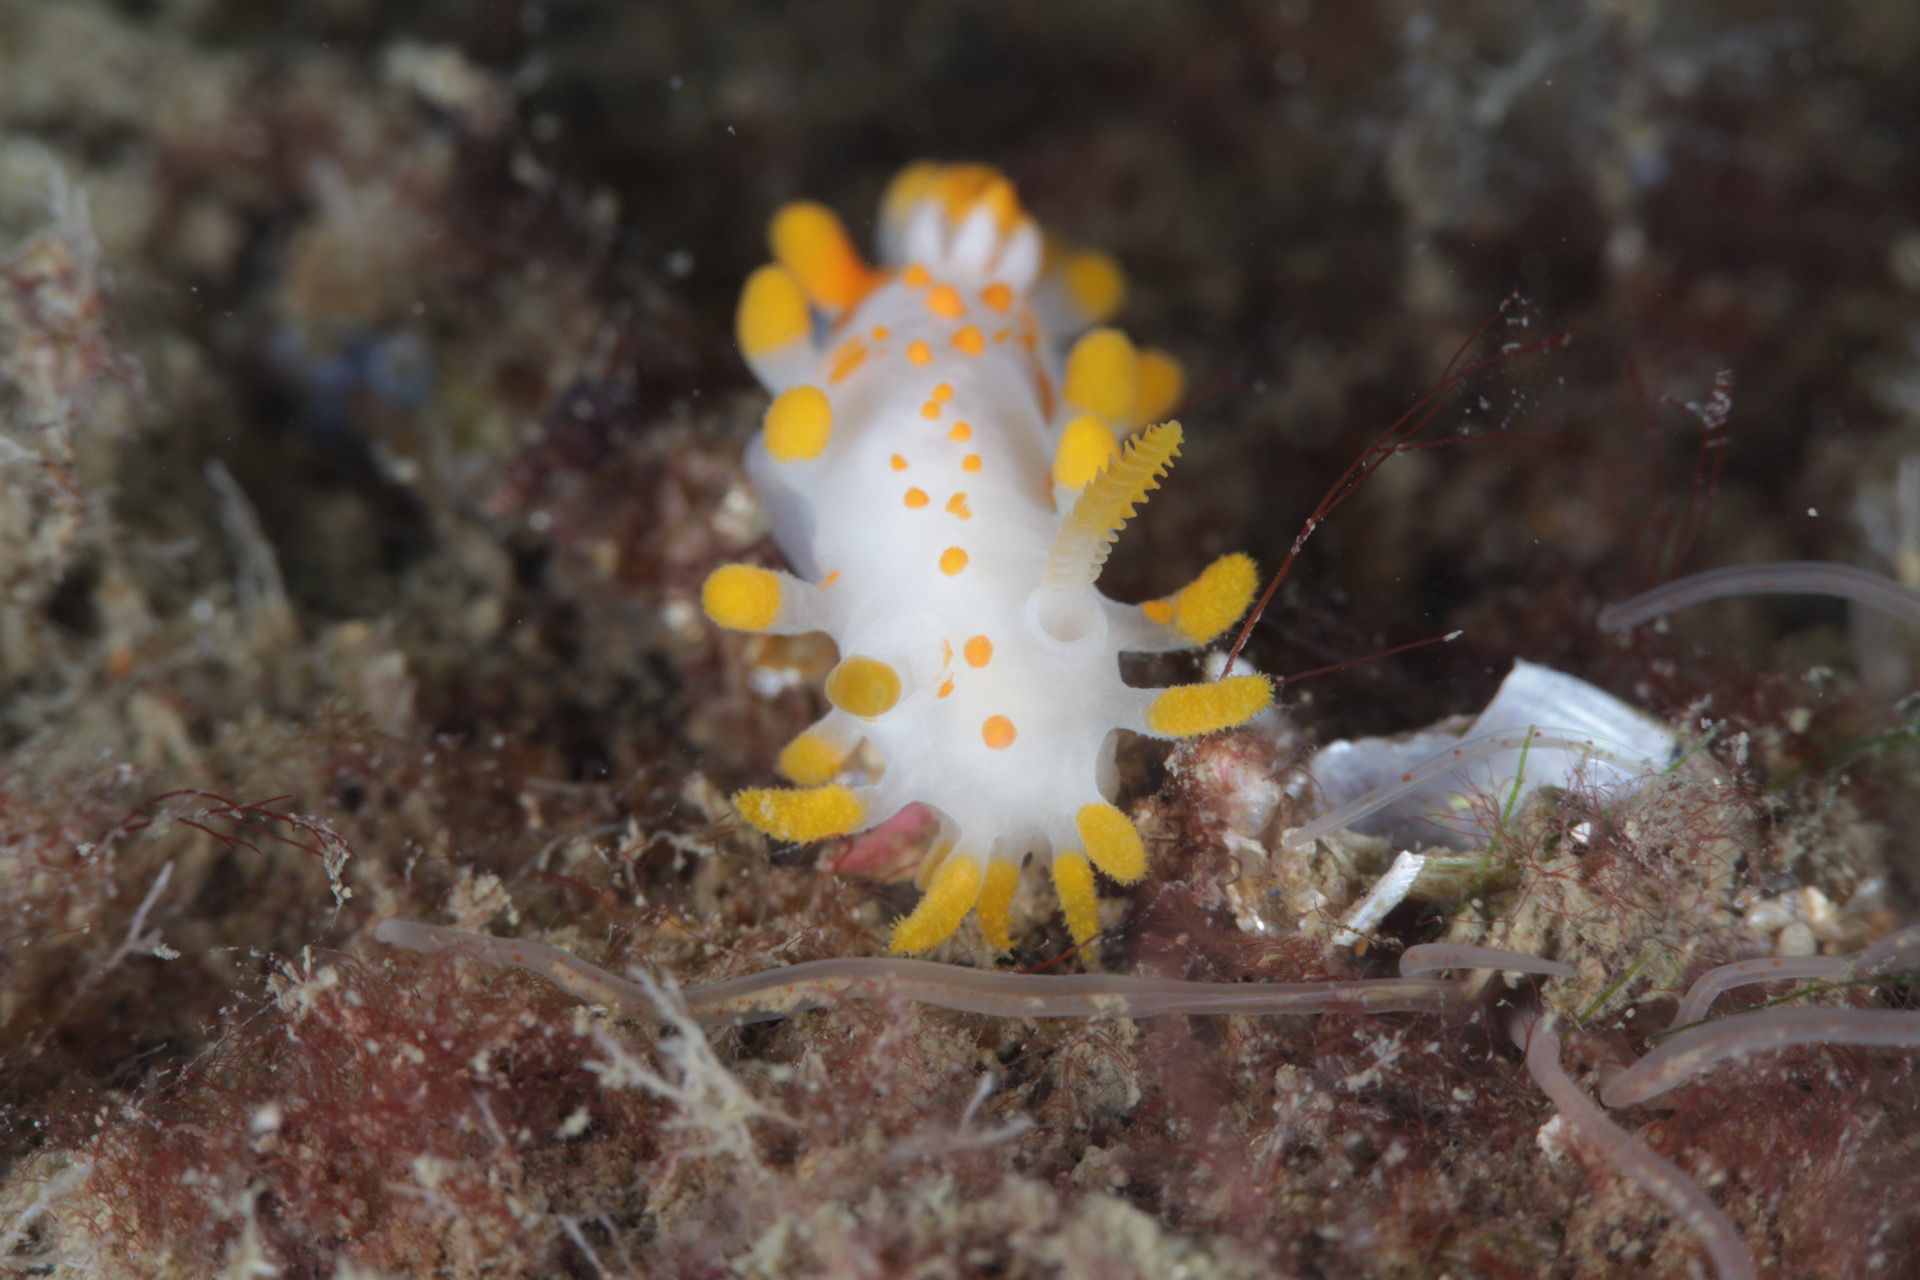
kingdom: Animalia
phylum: Mollusca
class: Gastropoda
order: Nudibranchia
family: Polyceridae
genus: Limacia
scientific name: Limacia clavigera
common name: Orange-clubbed sea slug
